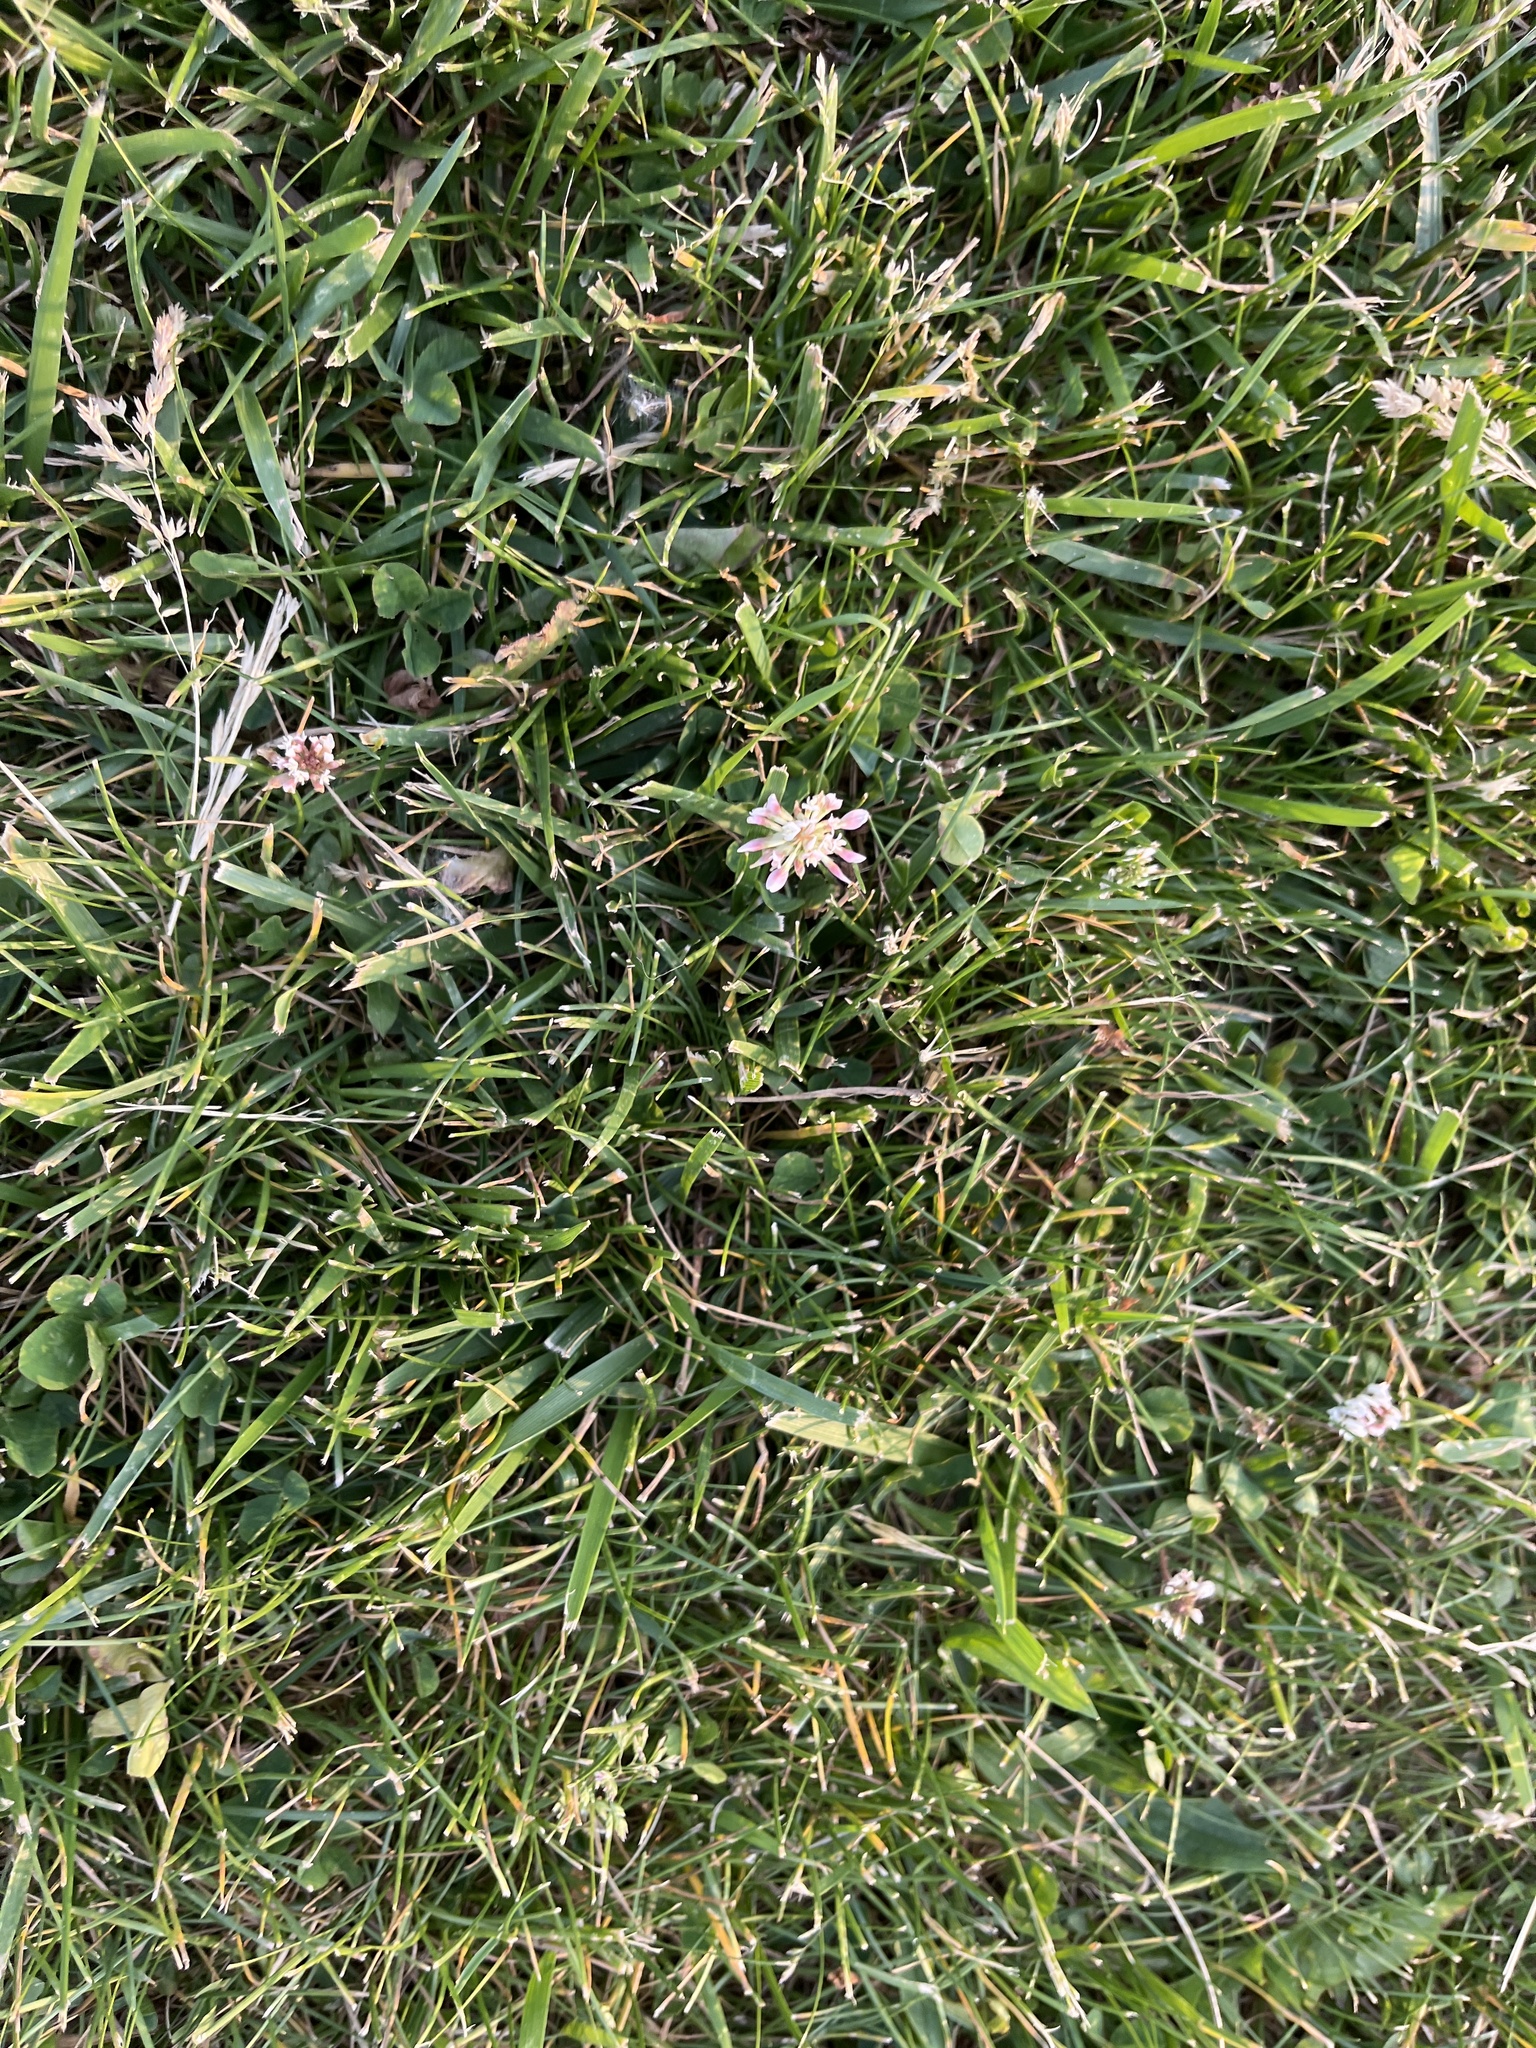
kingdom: Plantae
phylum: Tracheophyta
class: Magnoliopsida
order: Fabales
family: Fabaceae
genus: Trifolium
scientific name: Trifolium repens
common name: White clover
